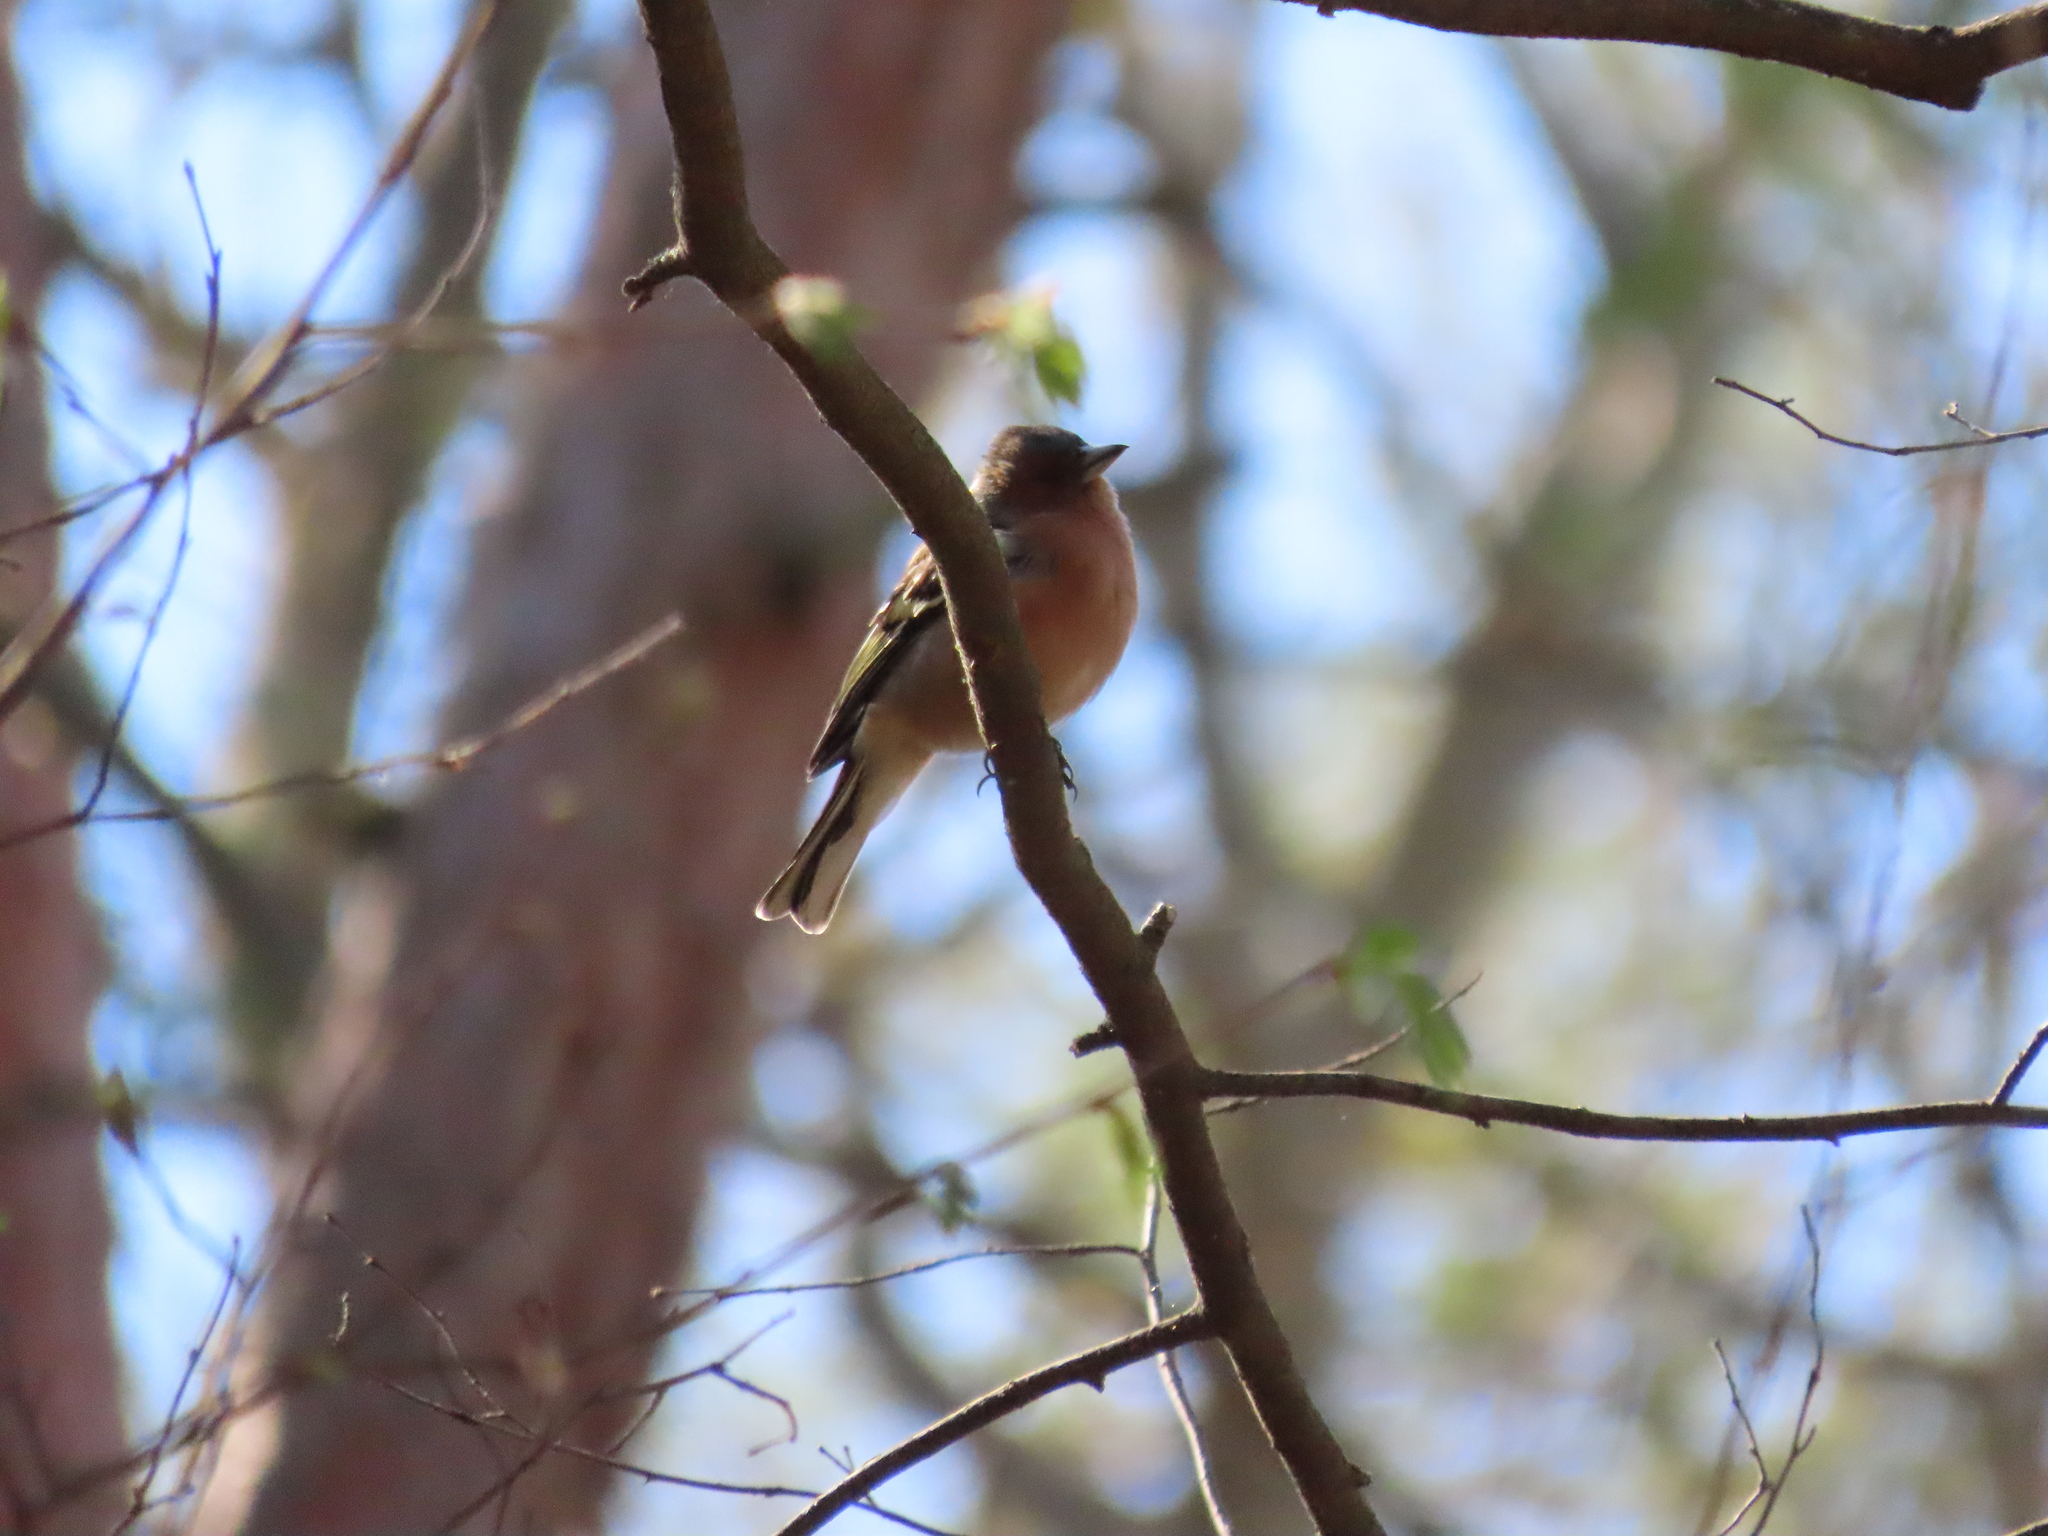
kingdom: Animalia
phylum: Chordata
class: Aves
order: Passeriformes
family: Fringillidae
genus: Fringilla
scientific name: Fringilla coelebs
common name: Common chaffinch
